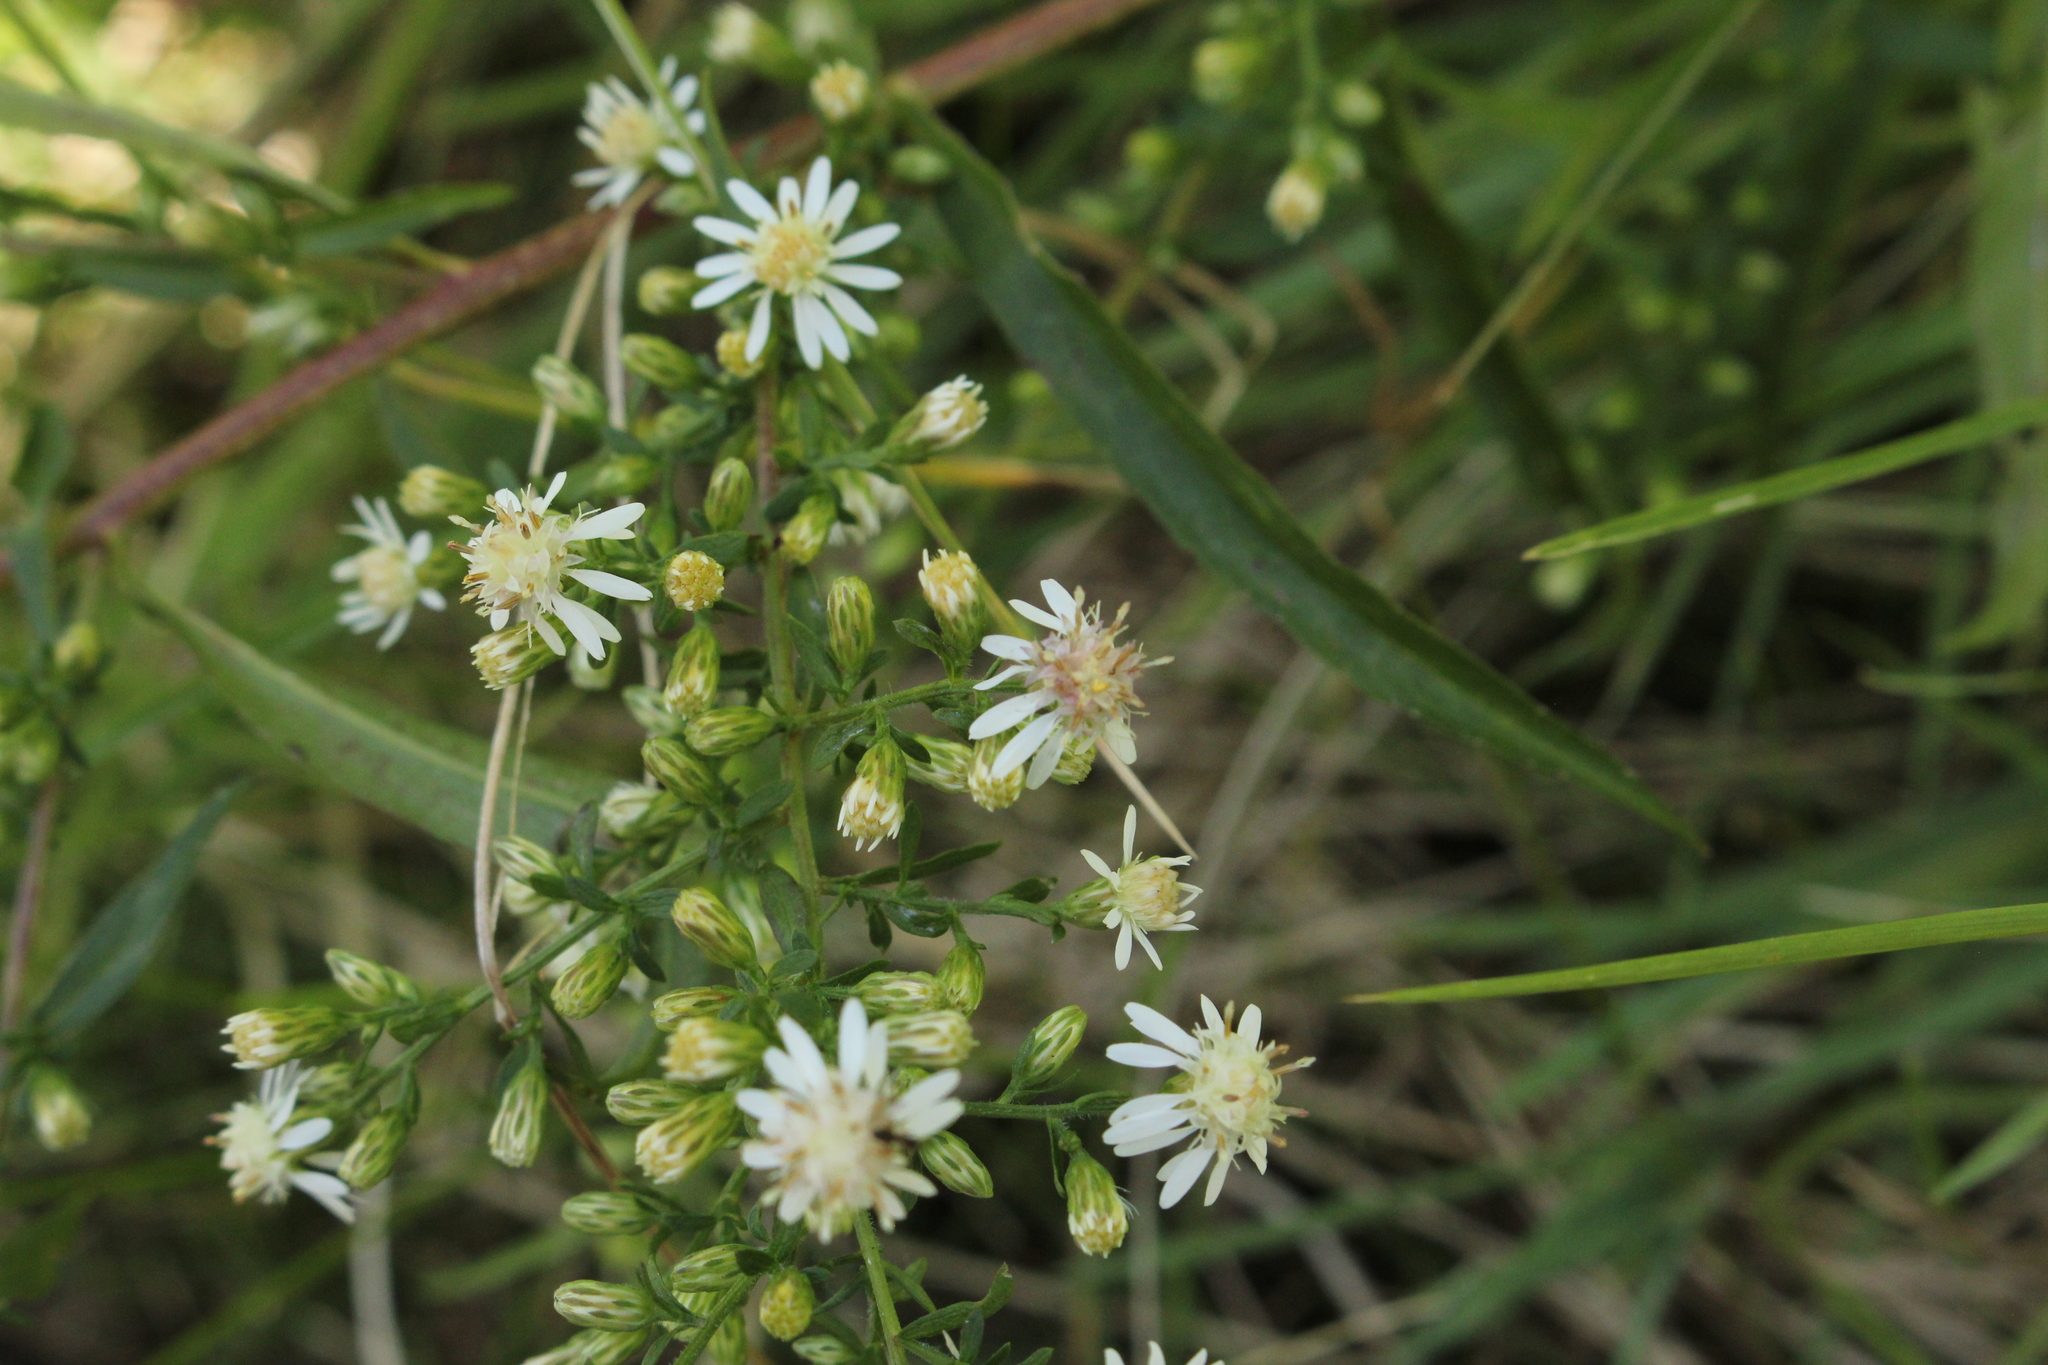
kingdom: Plantae
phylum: Tracheophyta
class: Magnoliopsida
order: Asterales
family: Asteraceae
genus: Symphyotrichum
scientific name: Symphyotrichum lateriflorum
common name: Calico aster
